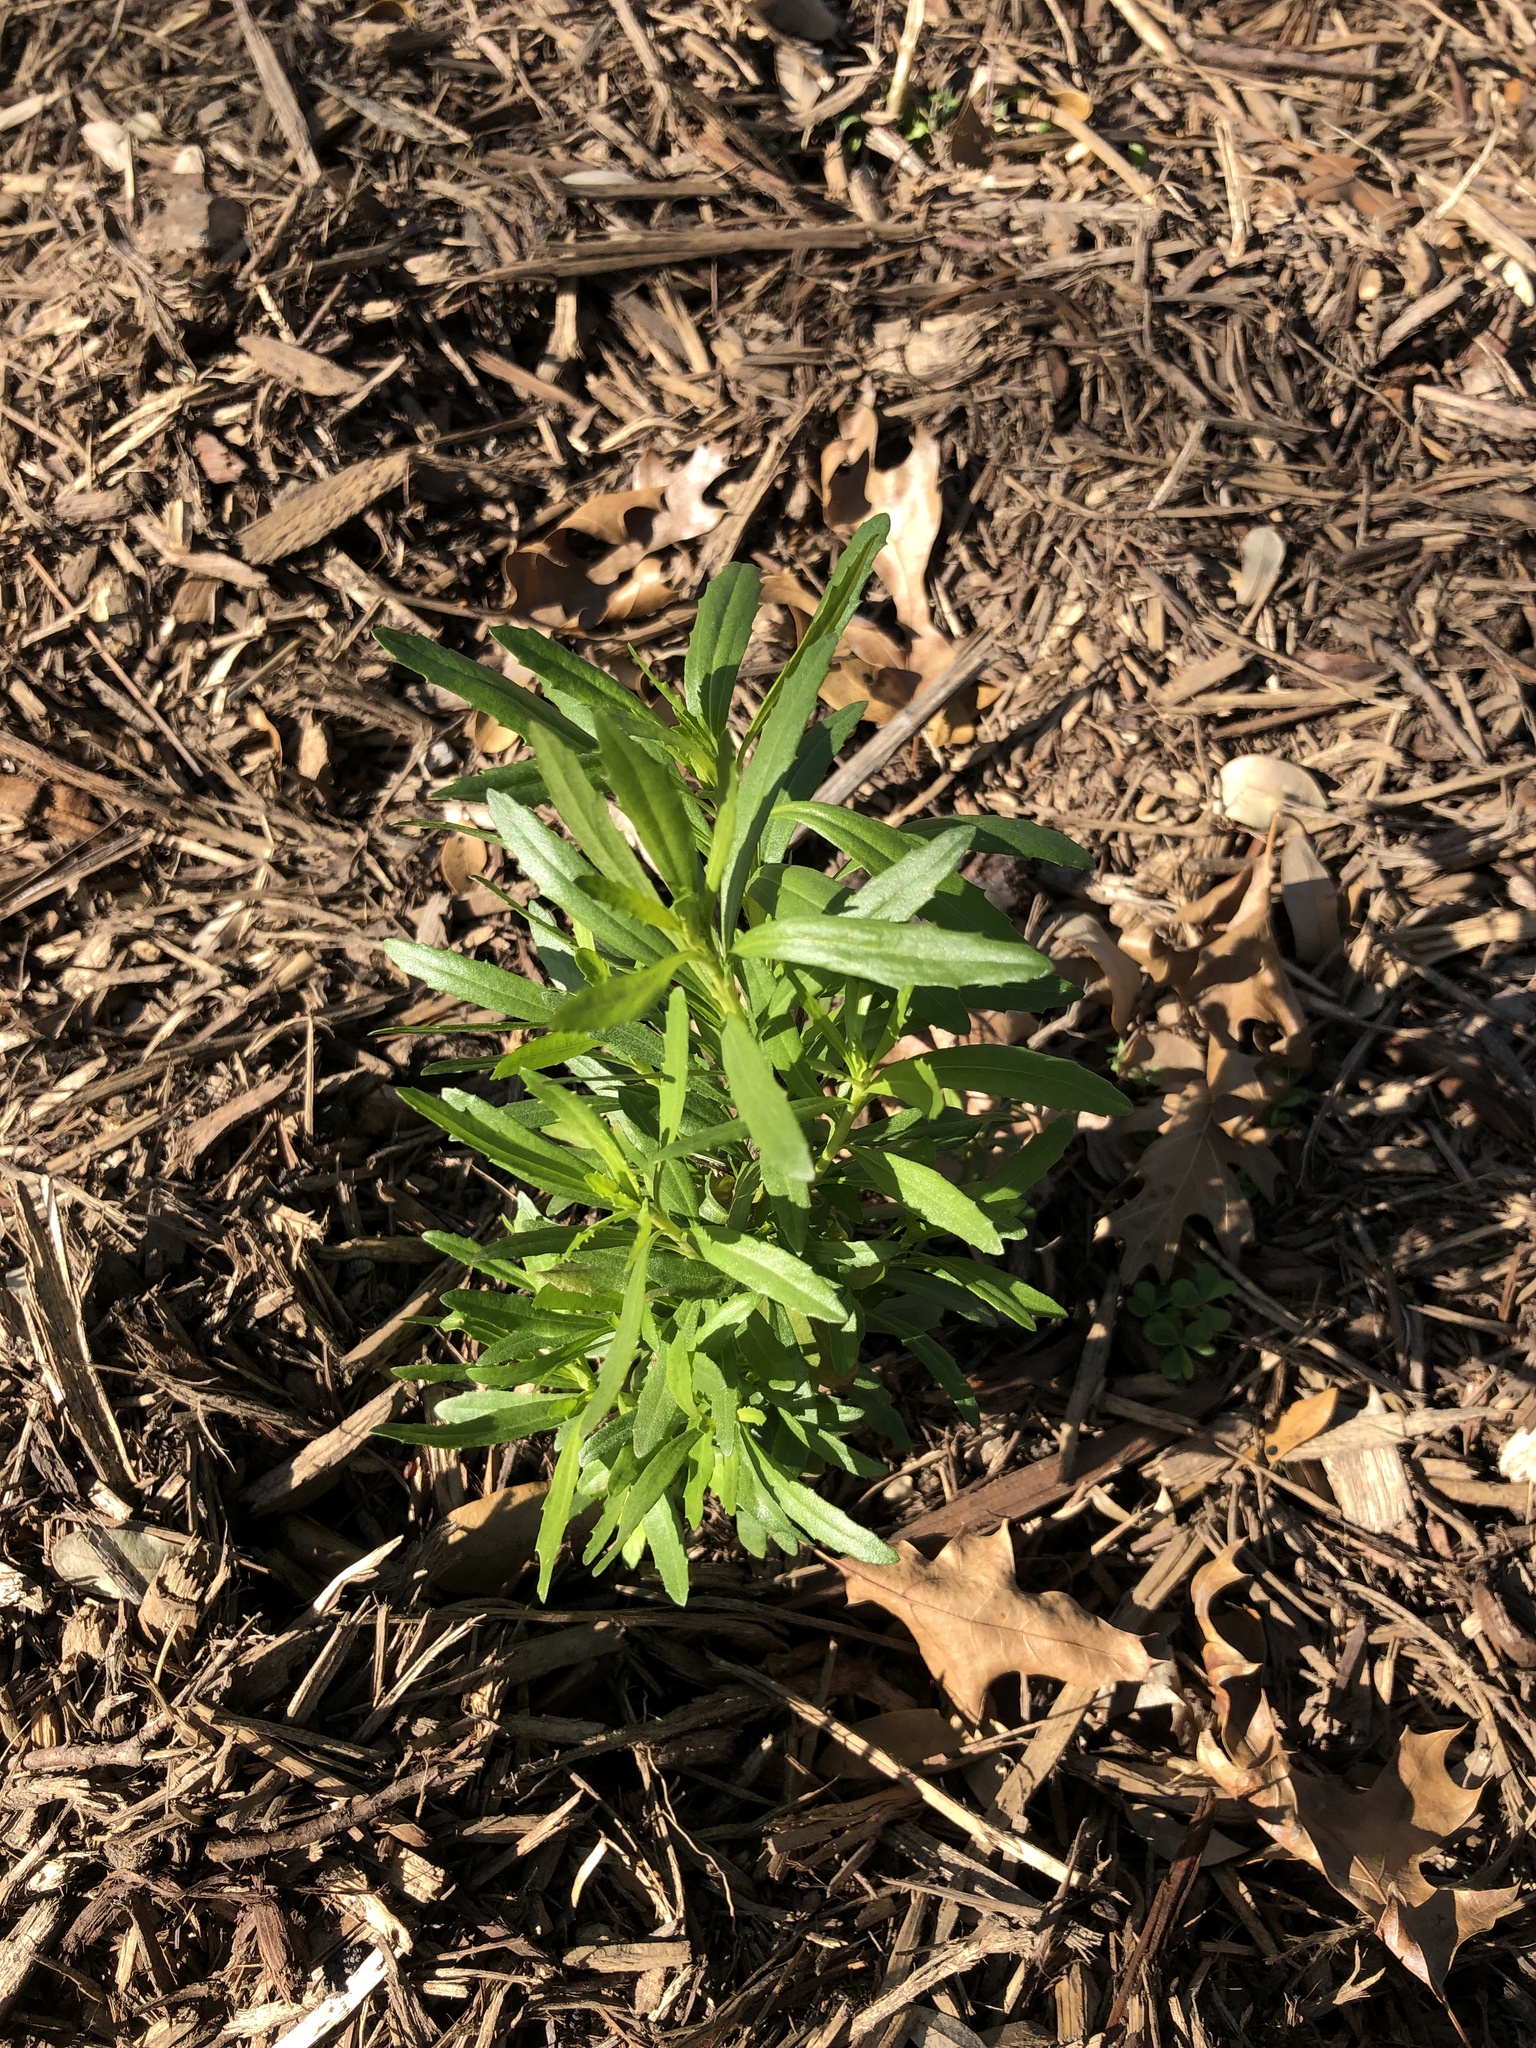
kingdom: Plantae
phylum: Tracheophyta
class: Magnoliopsida
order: Asterales
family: Asteraceae
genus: Baccharis
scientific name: Baccharis neglecta
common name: Roosevelt-weed
